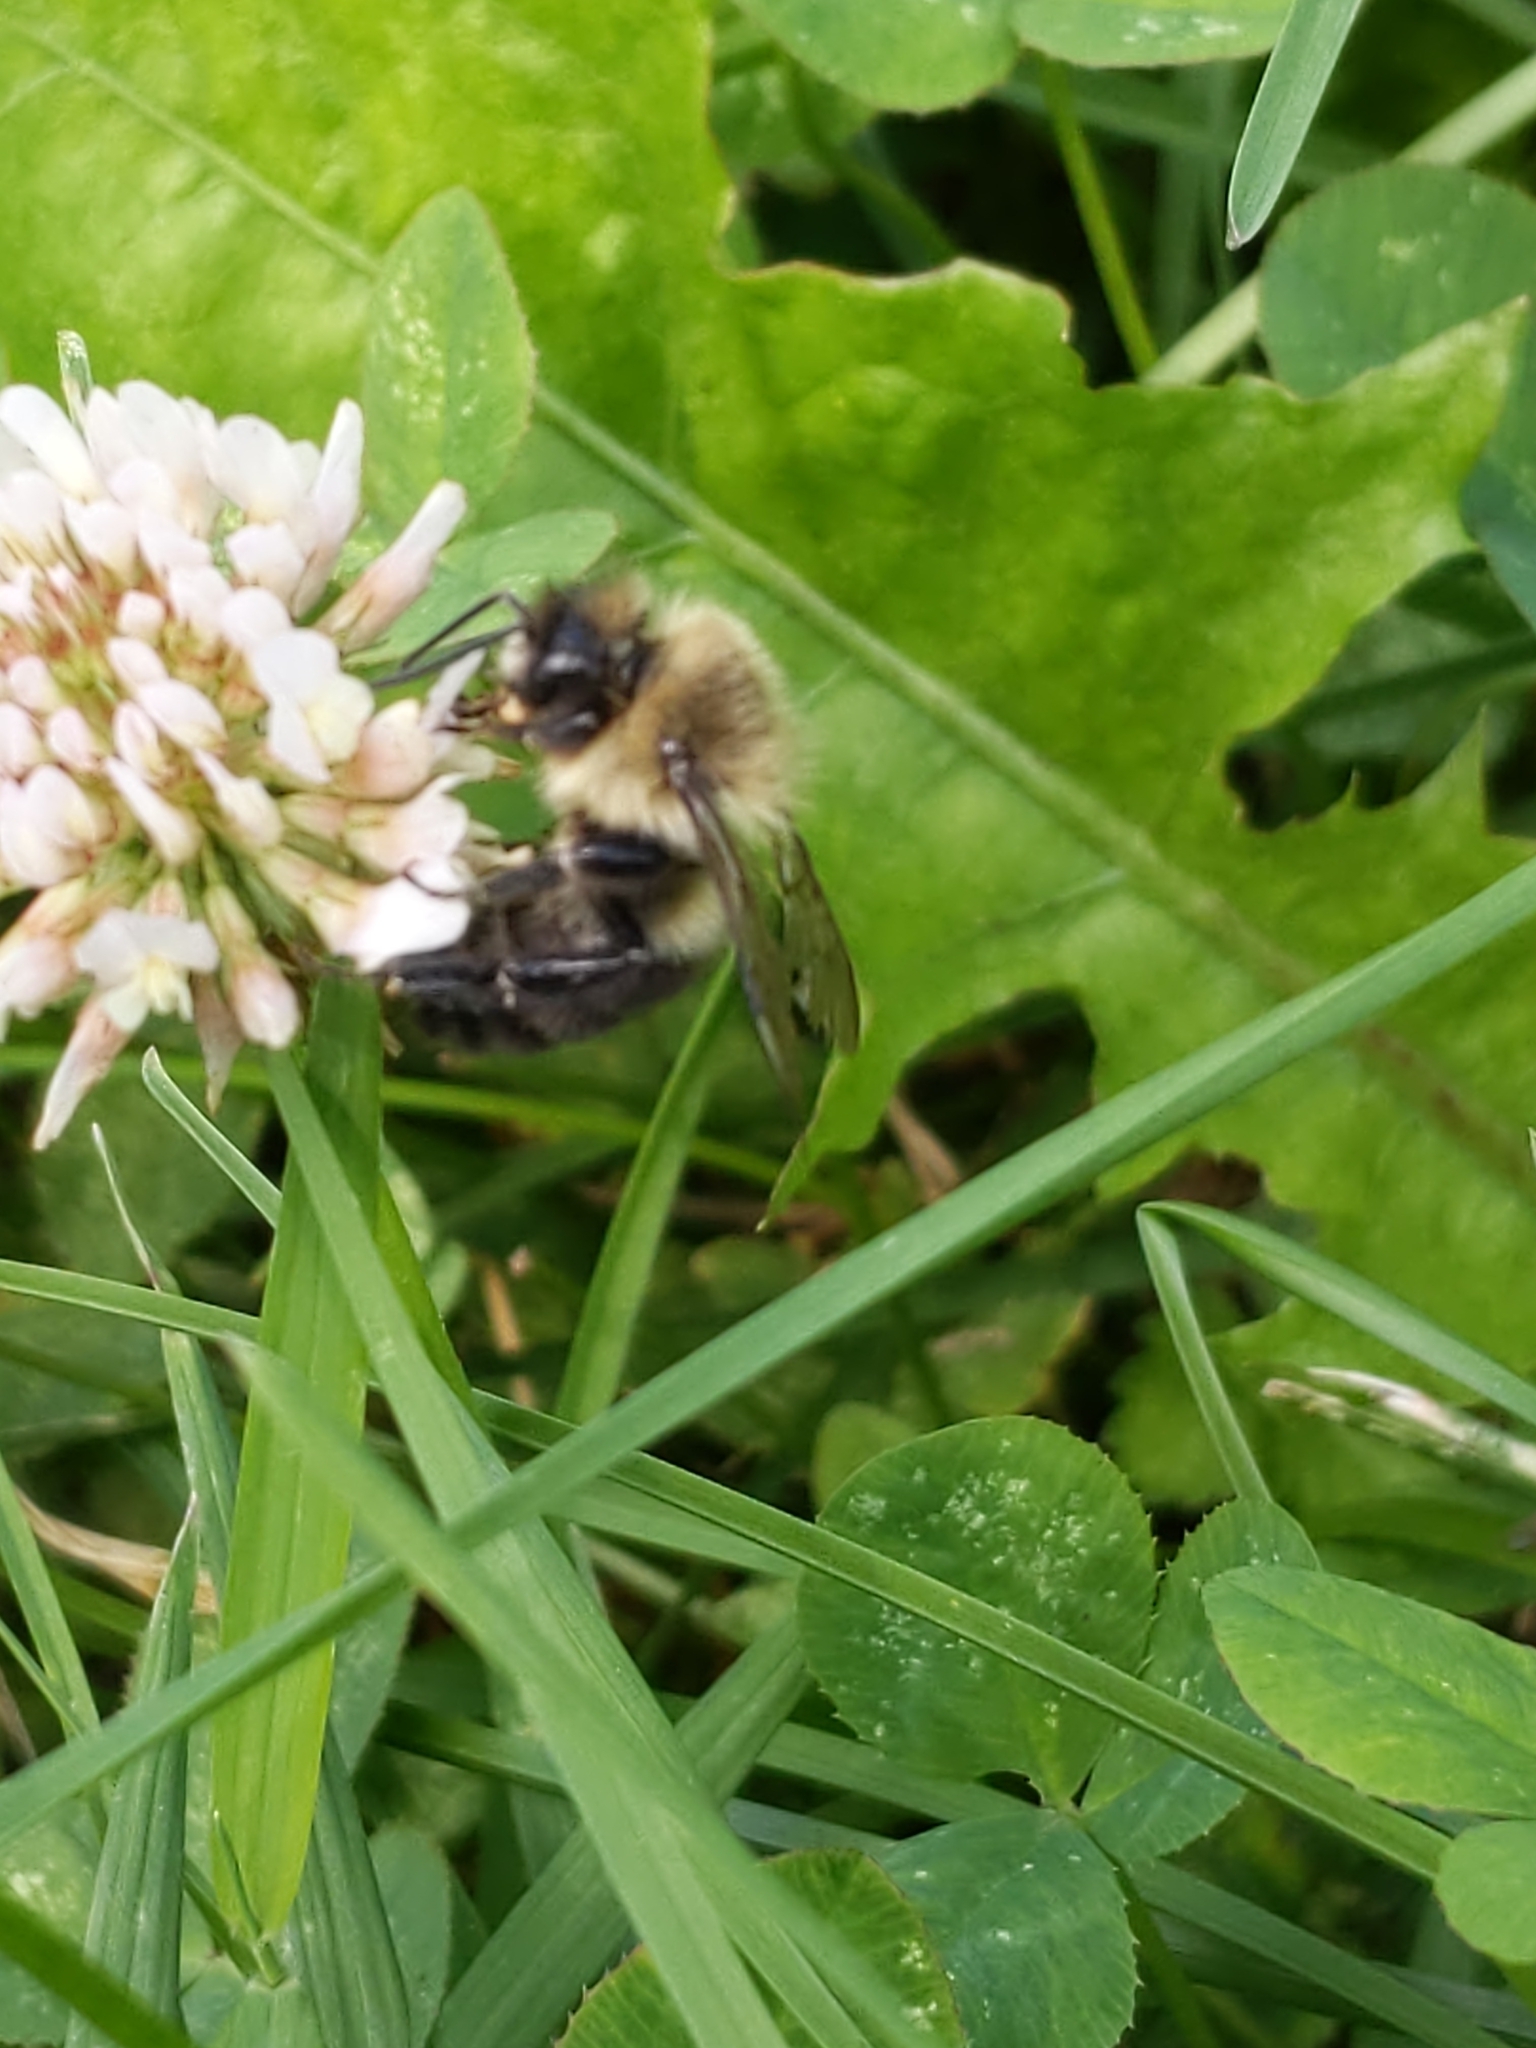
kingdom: Animalia
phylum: Arthropoda
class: Insecta
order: Hymenoptera
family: Apidae
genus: Bombus
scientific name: Bombus impatiens
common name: Common eastern bumble bee
